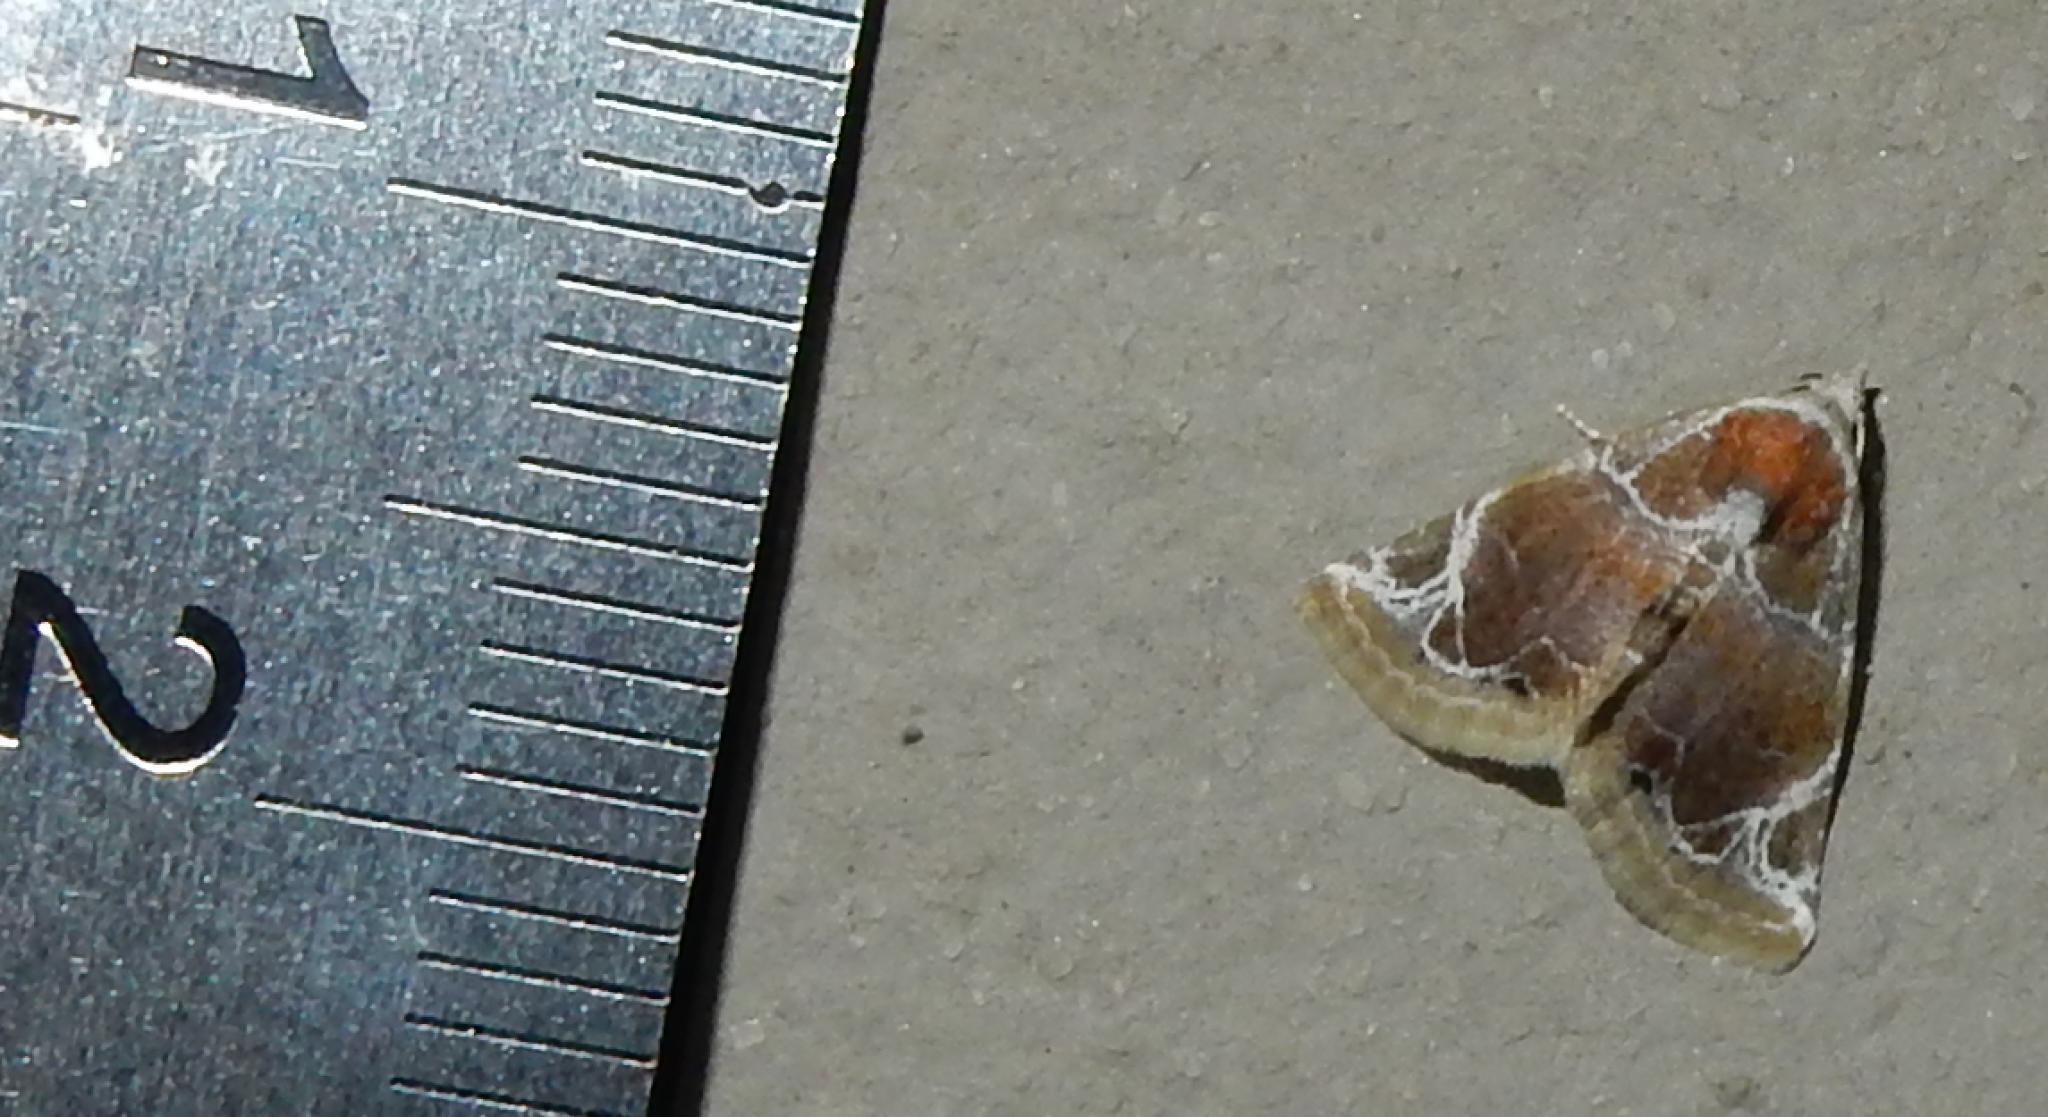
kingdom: Animalia
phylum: Arthropoda
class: Insecta
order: Lepidoptera
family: Noctuidae
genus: Eublemma
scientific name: Eublemma costimacula
